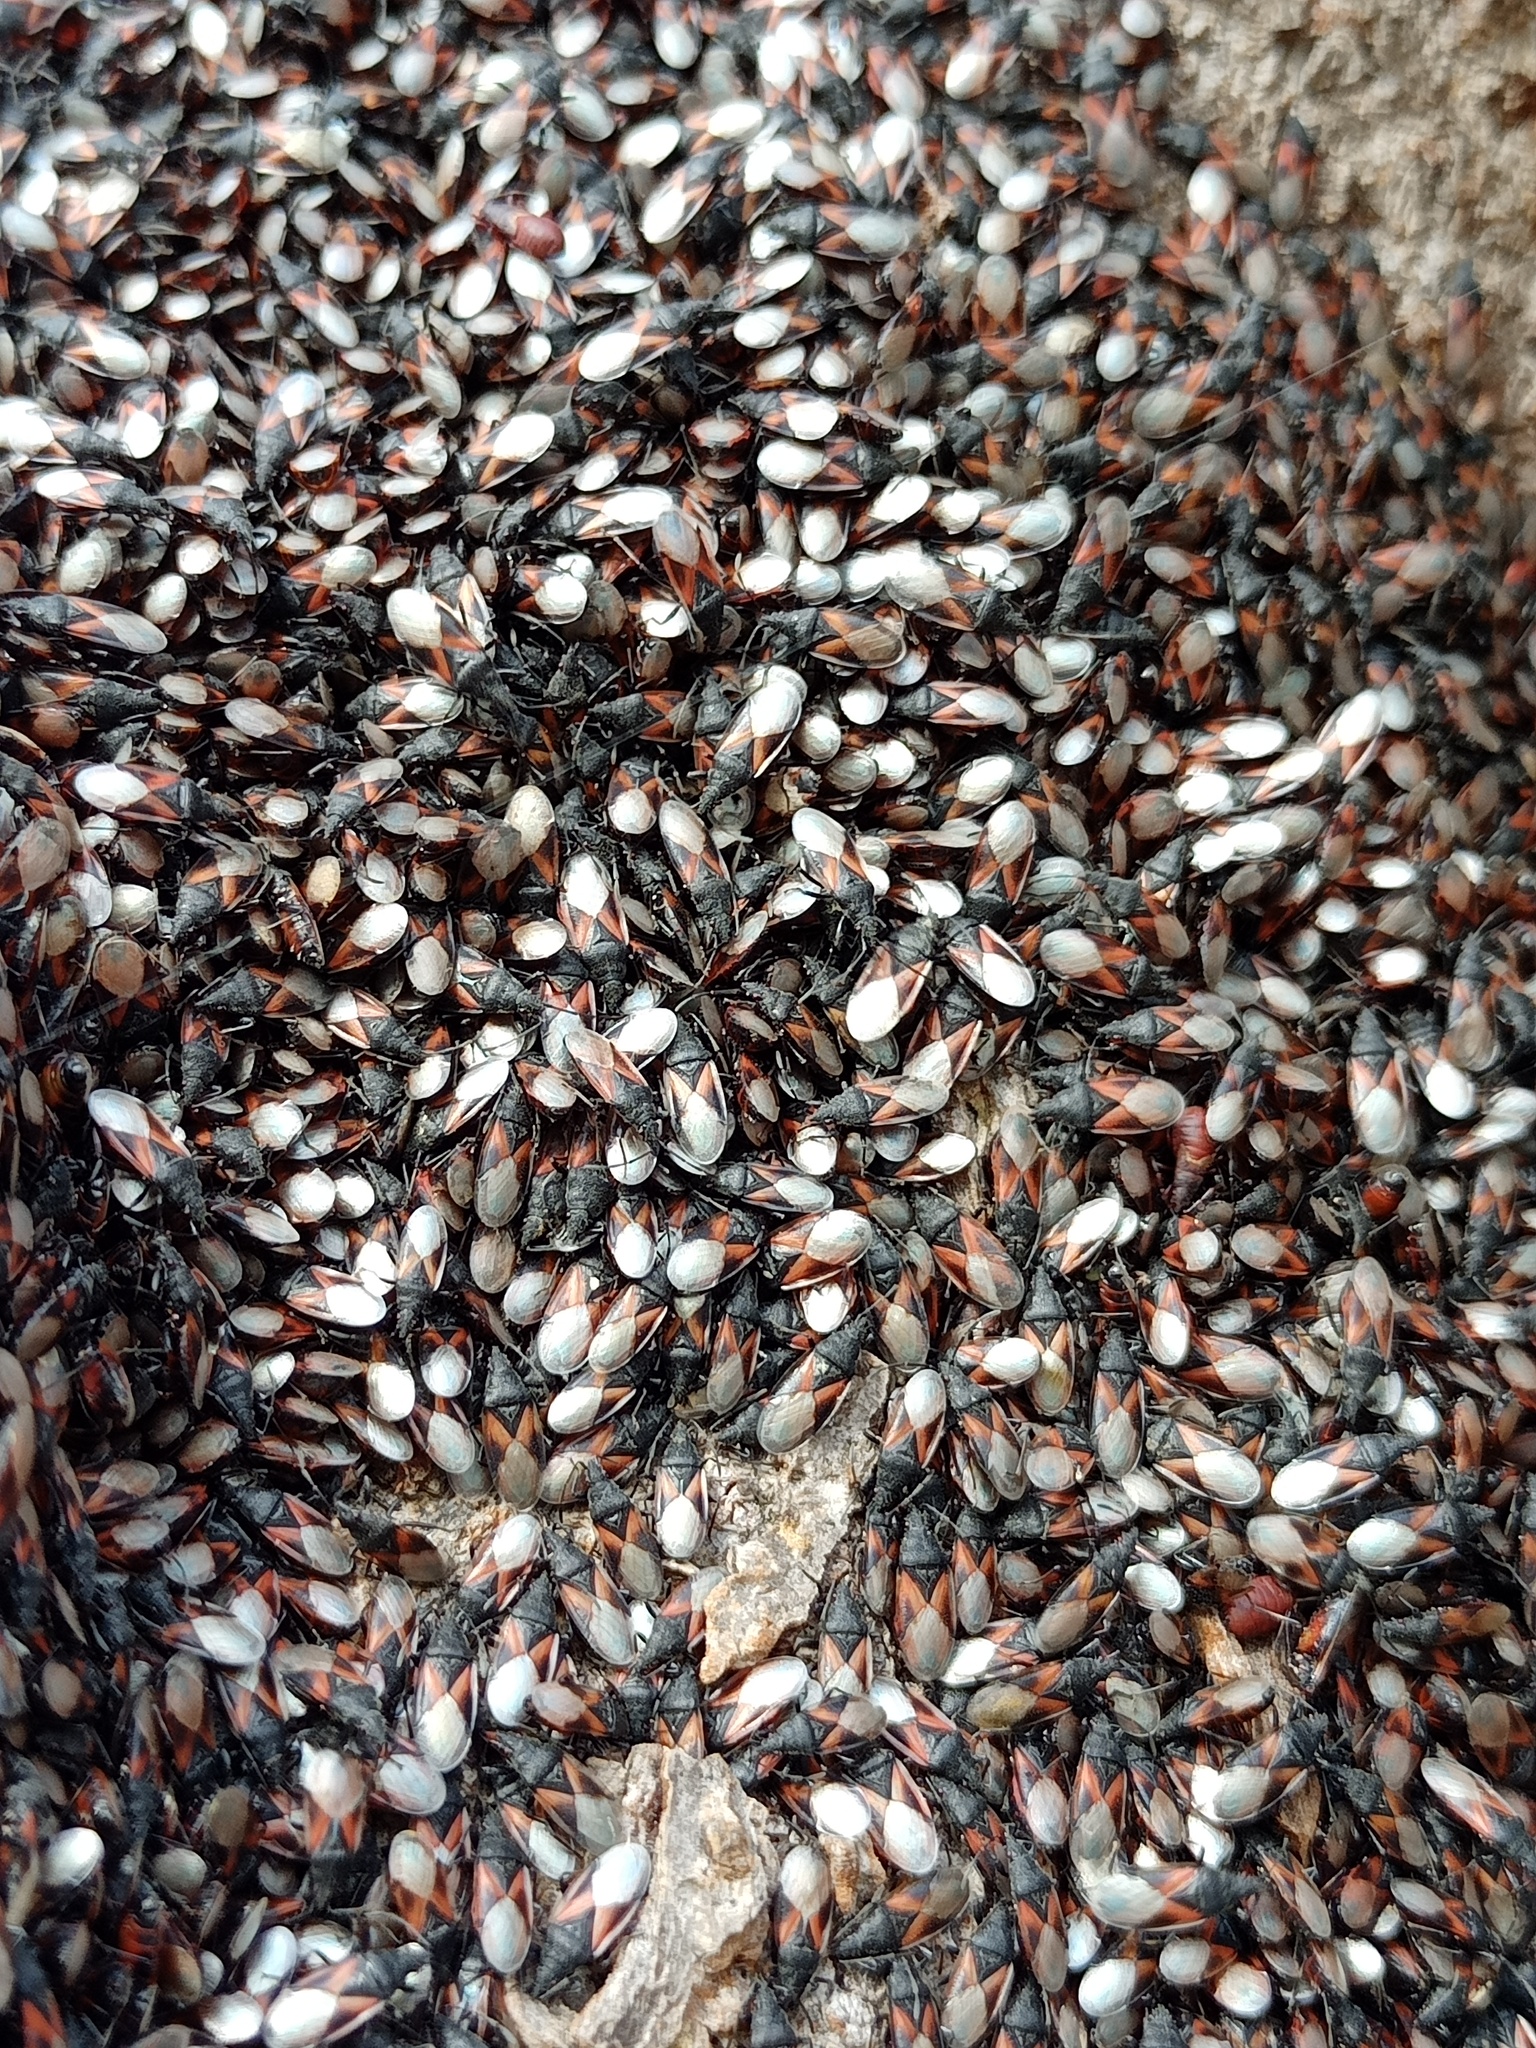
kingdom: Animalia
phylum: Arthropoda
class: Insecta
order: Hemiptera
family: Oxycarenidae
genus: Oxycarenus
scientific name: Oxycarenus lavaterae
